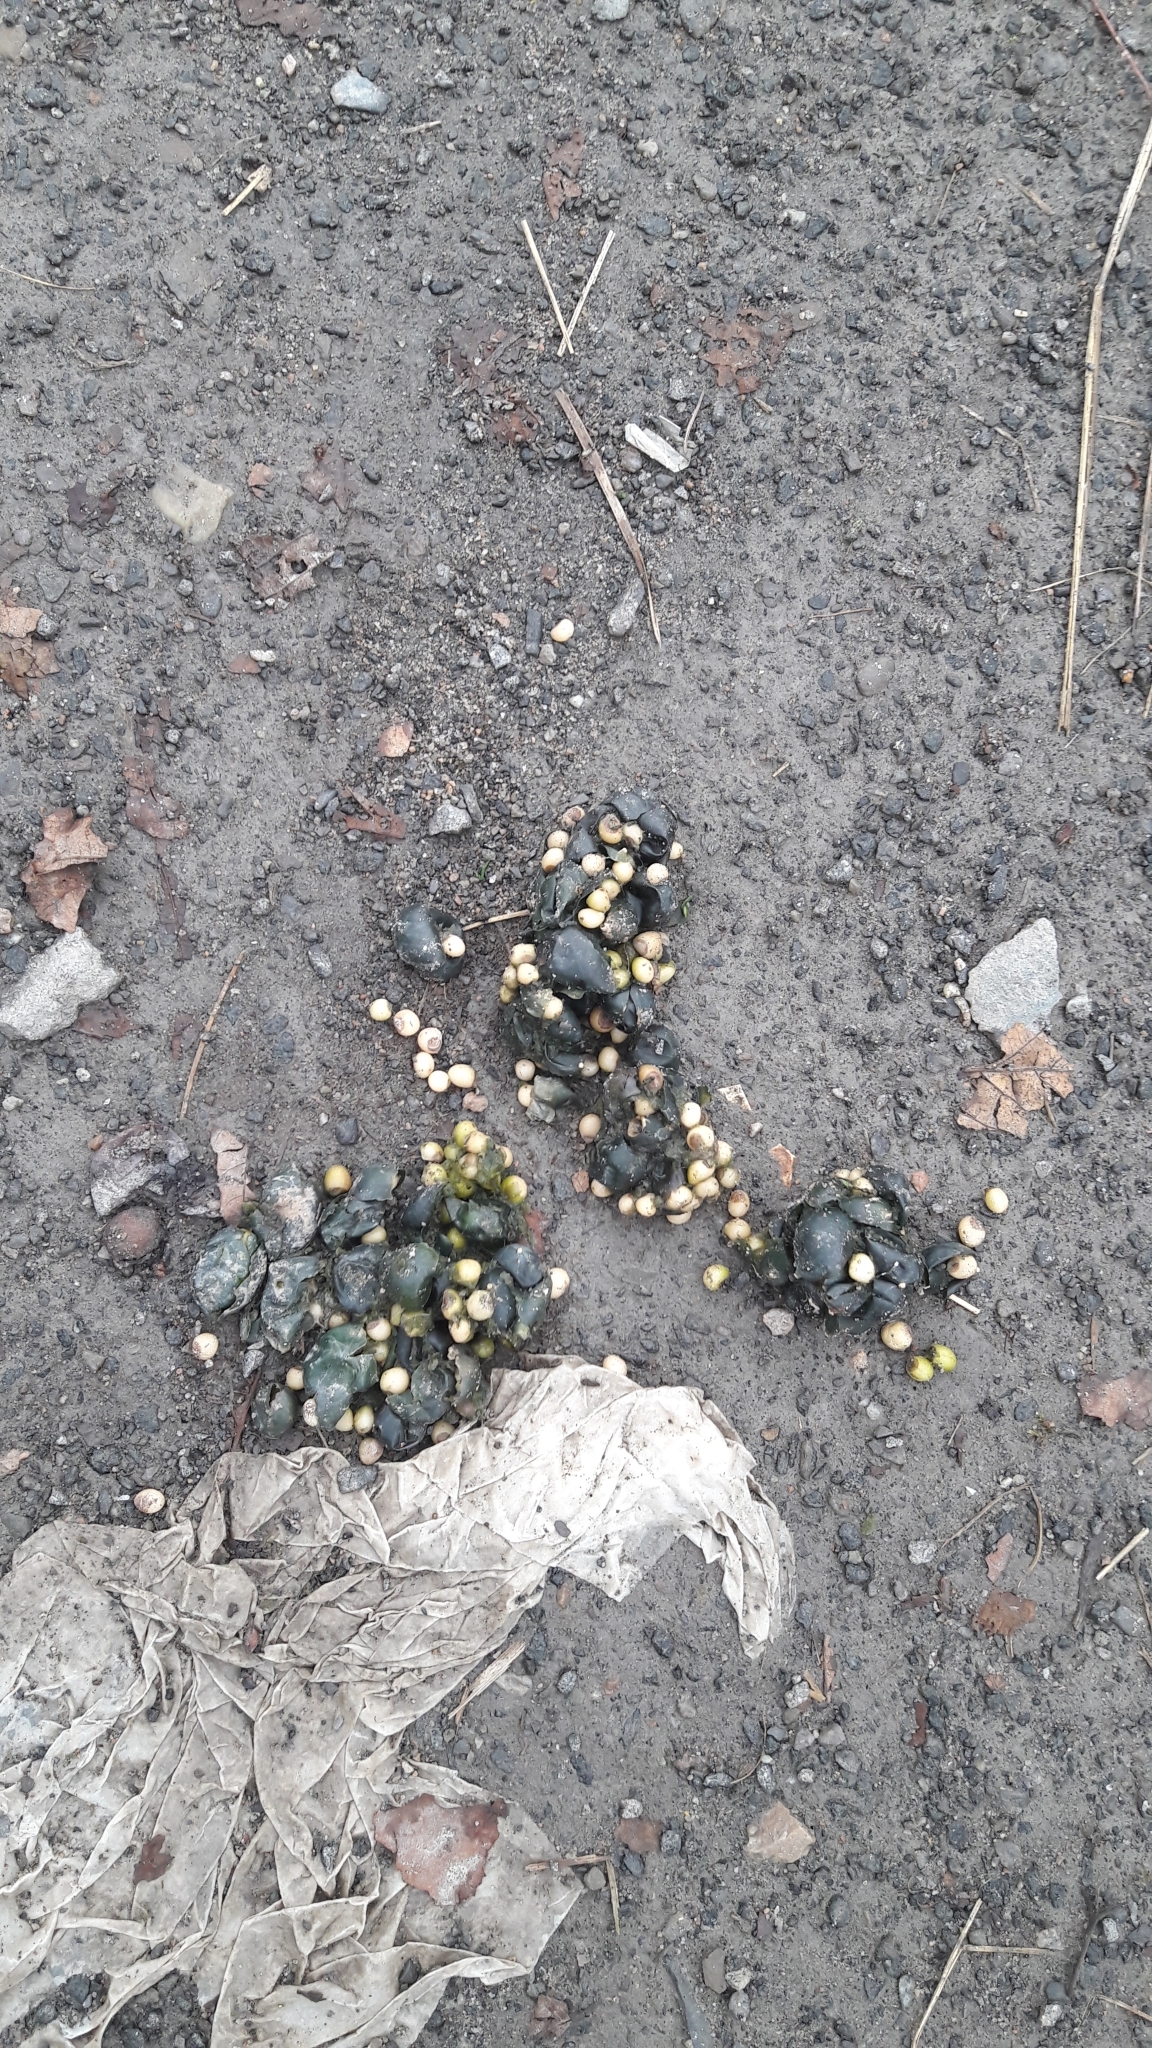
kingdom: Animalia
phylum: Chordata
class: Mammalia
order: Carnivora
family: Canidae
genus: Vulpes
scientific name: Vulpes vulpes
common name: Red fox
